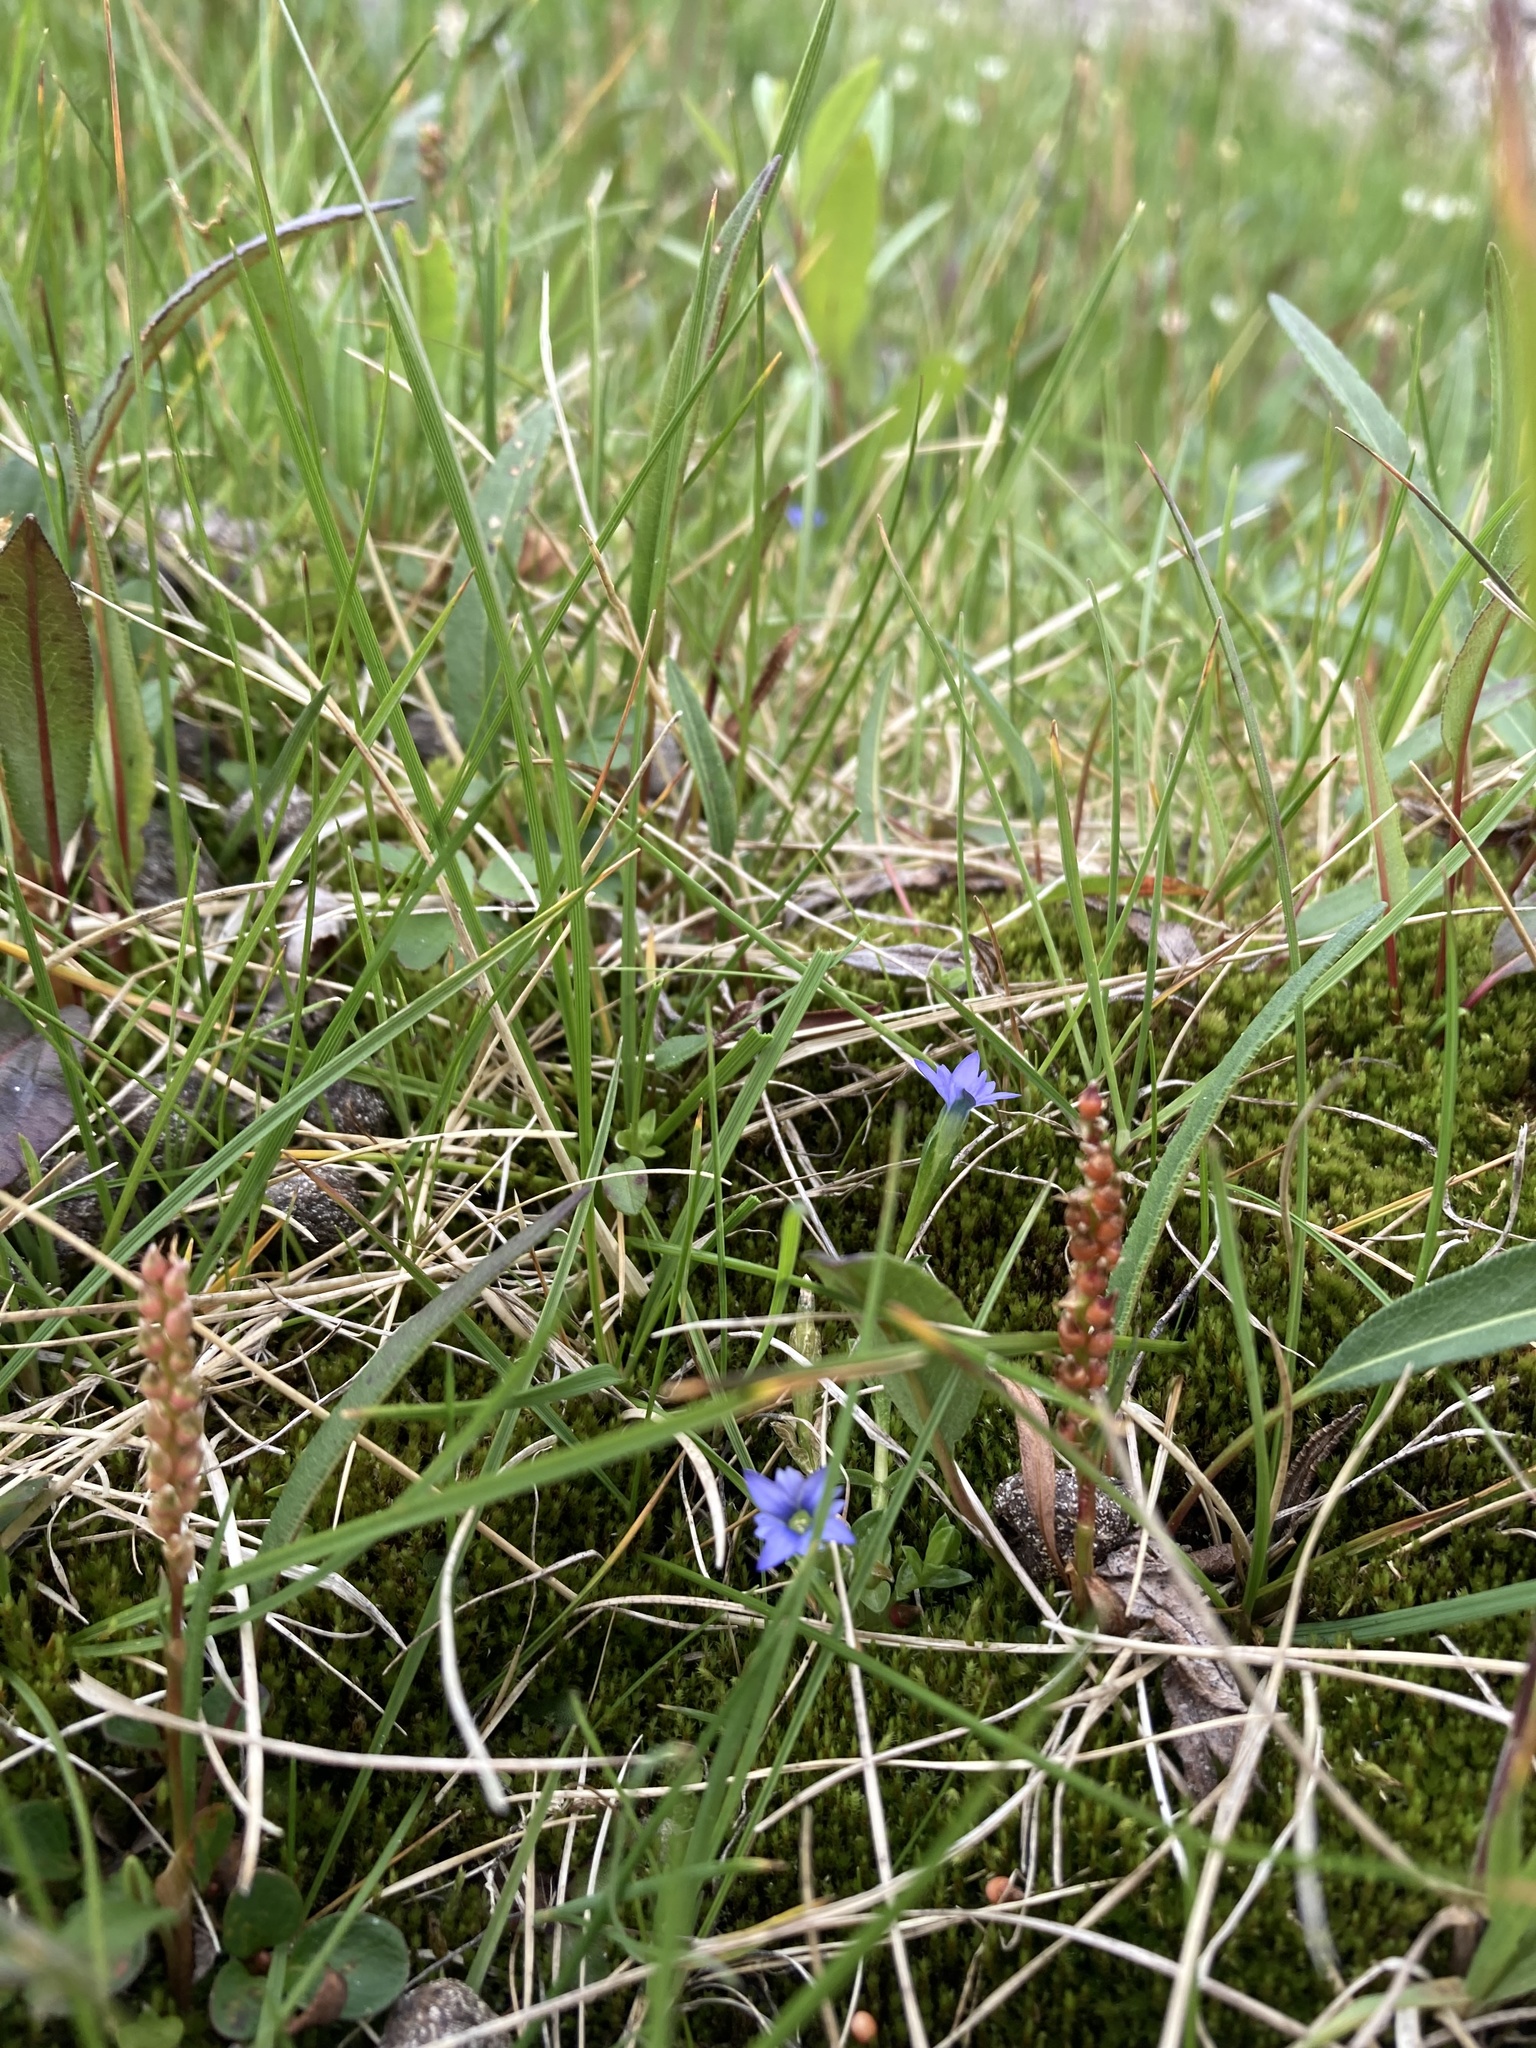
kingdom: Plantae
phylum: Tracheophyta
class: Magnoliopsida
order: Gentianales
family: Gentianaceae
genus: Gentiana
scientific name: Gentiana prostrata
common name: Moss gentian
